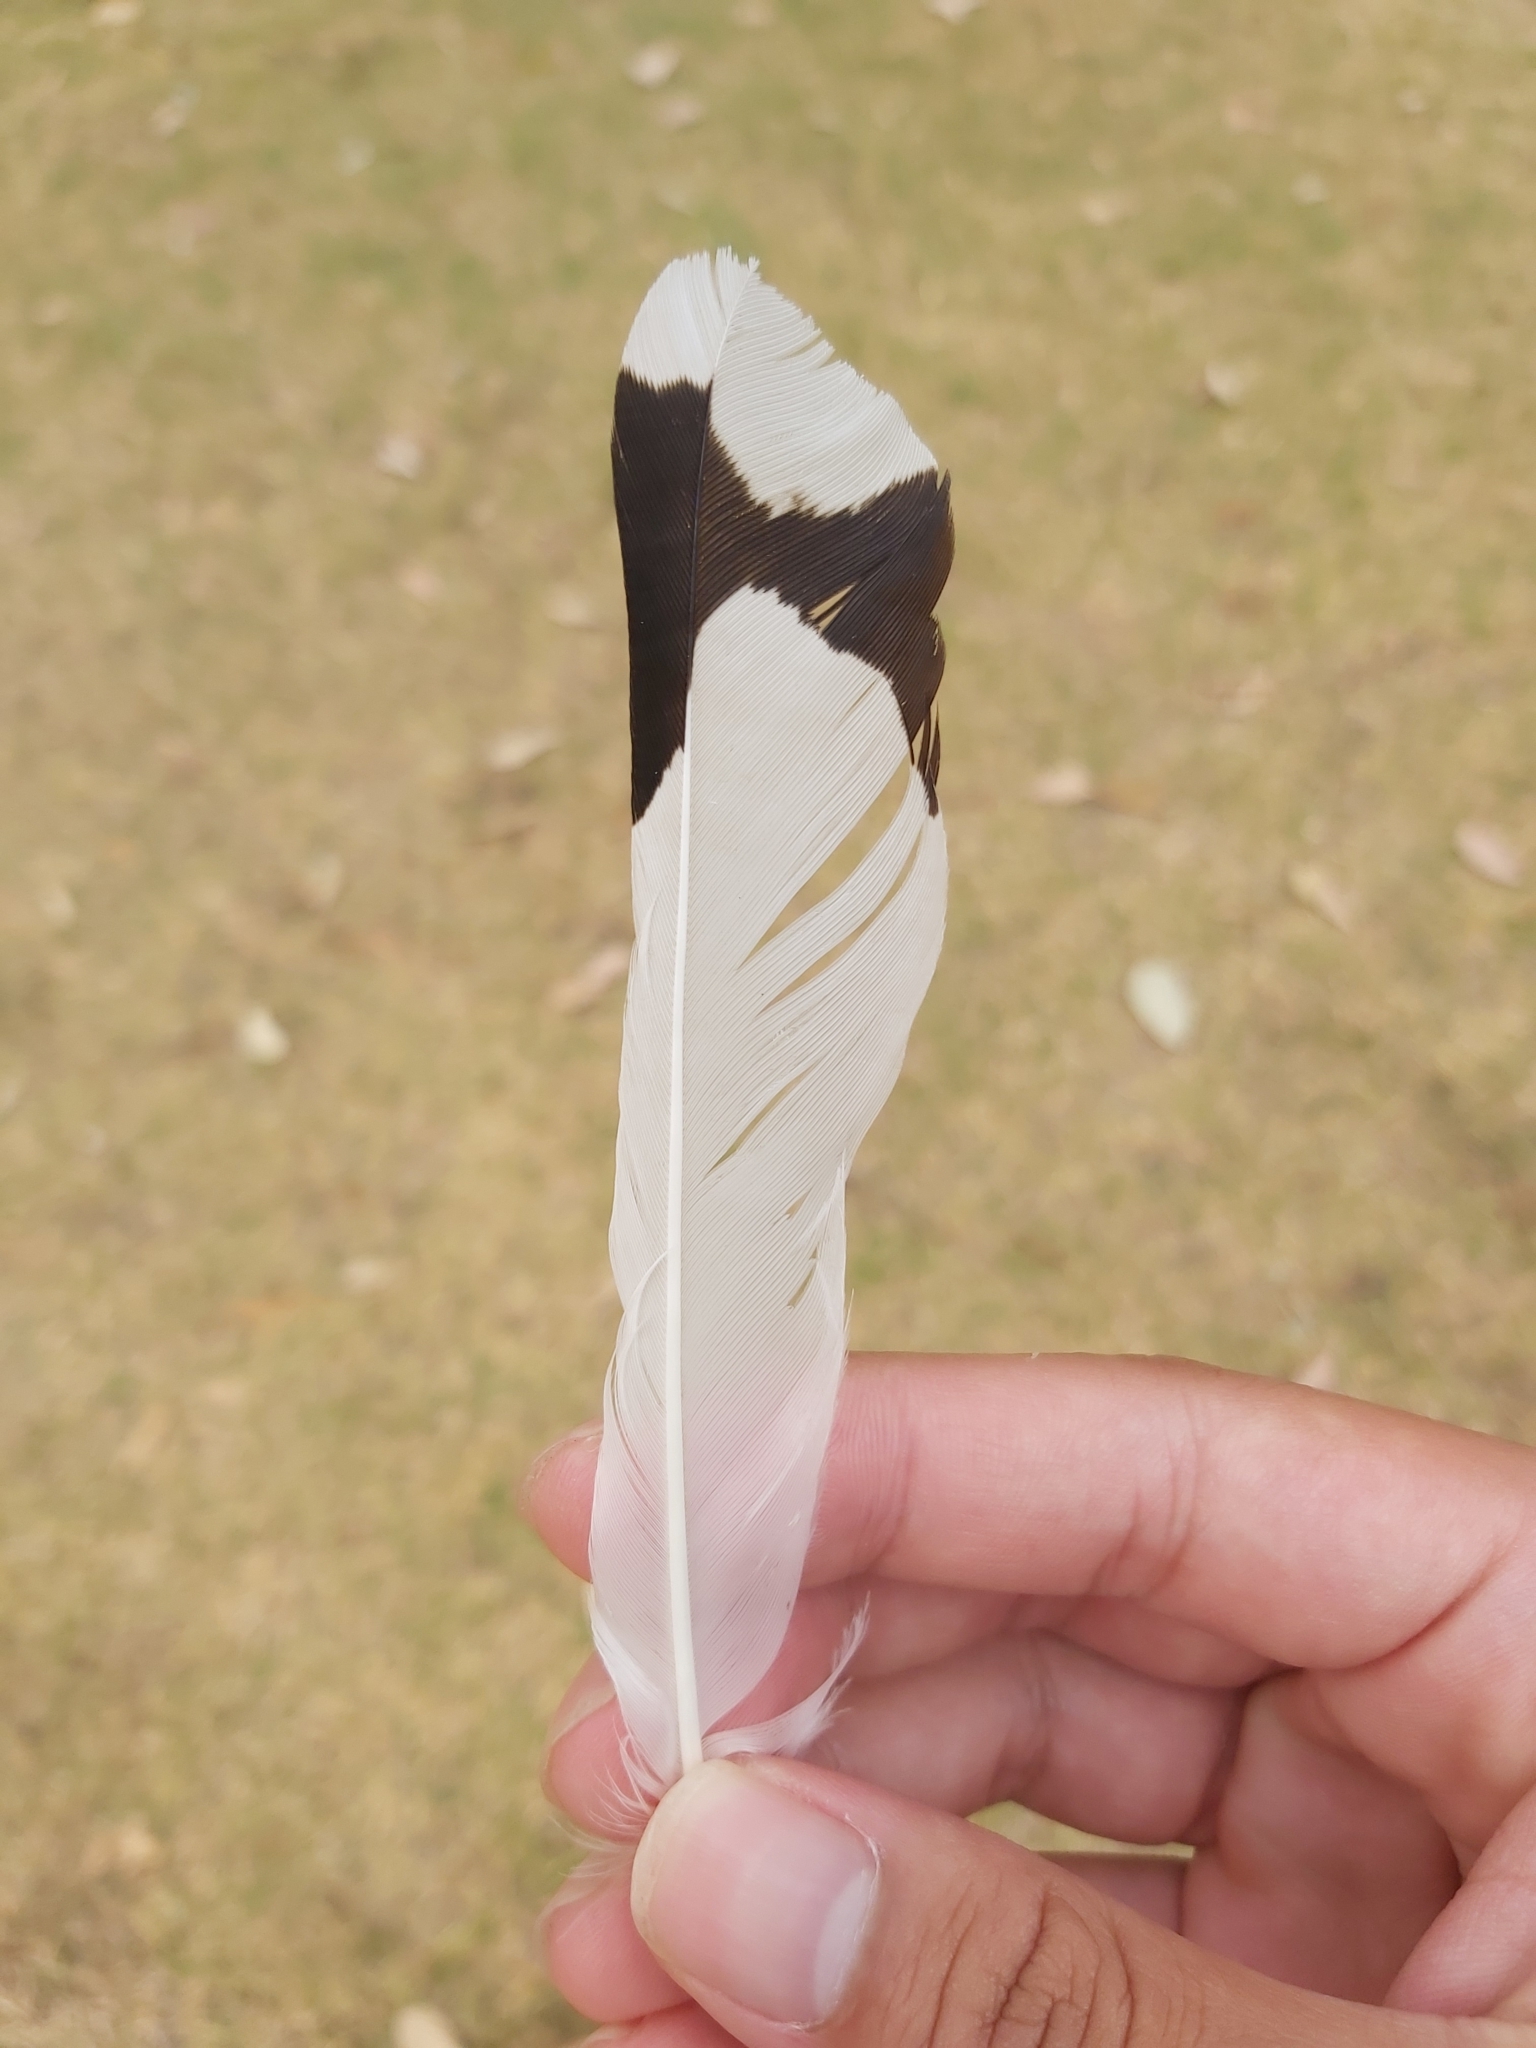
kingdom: Animalia
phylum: Chordata
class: Aves
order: Passeriformes
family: Monarchidae
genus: Grallina
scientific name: Grallina cyanoleuca
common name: Magpie-lark
